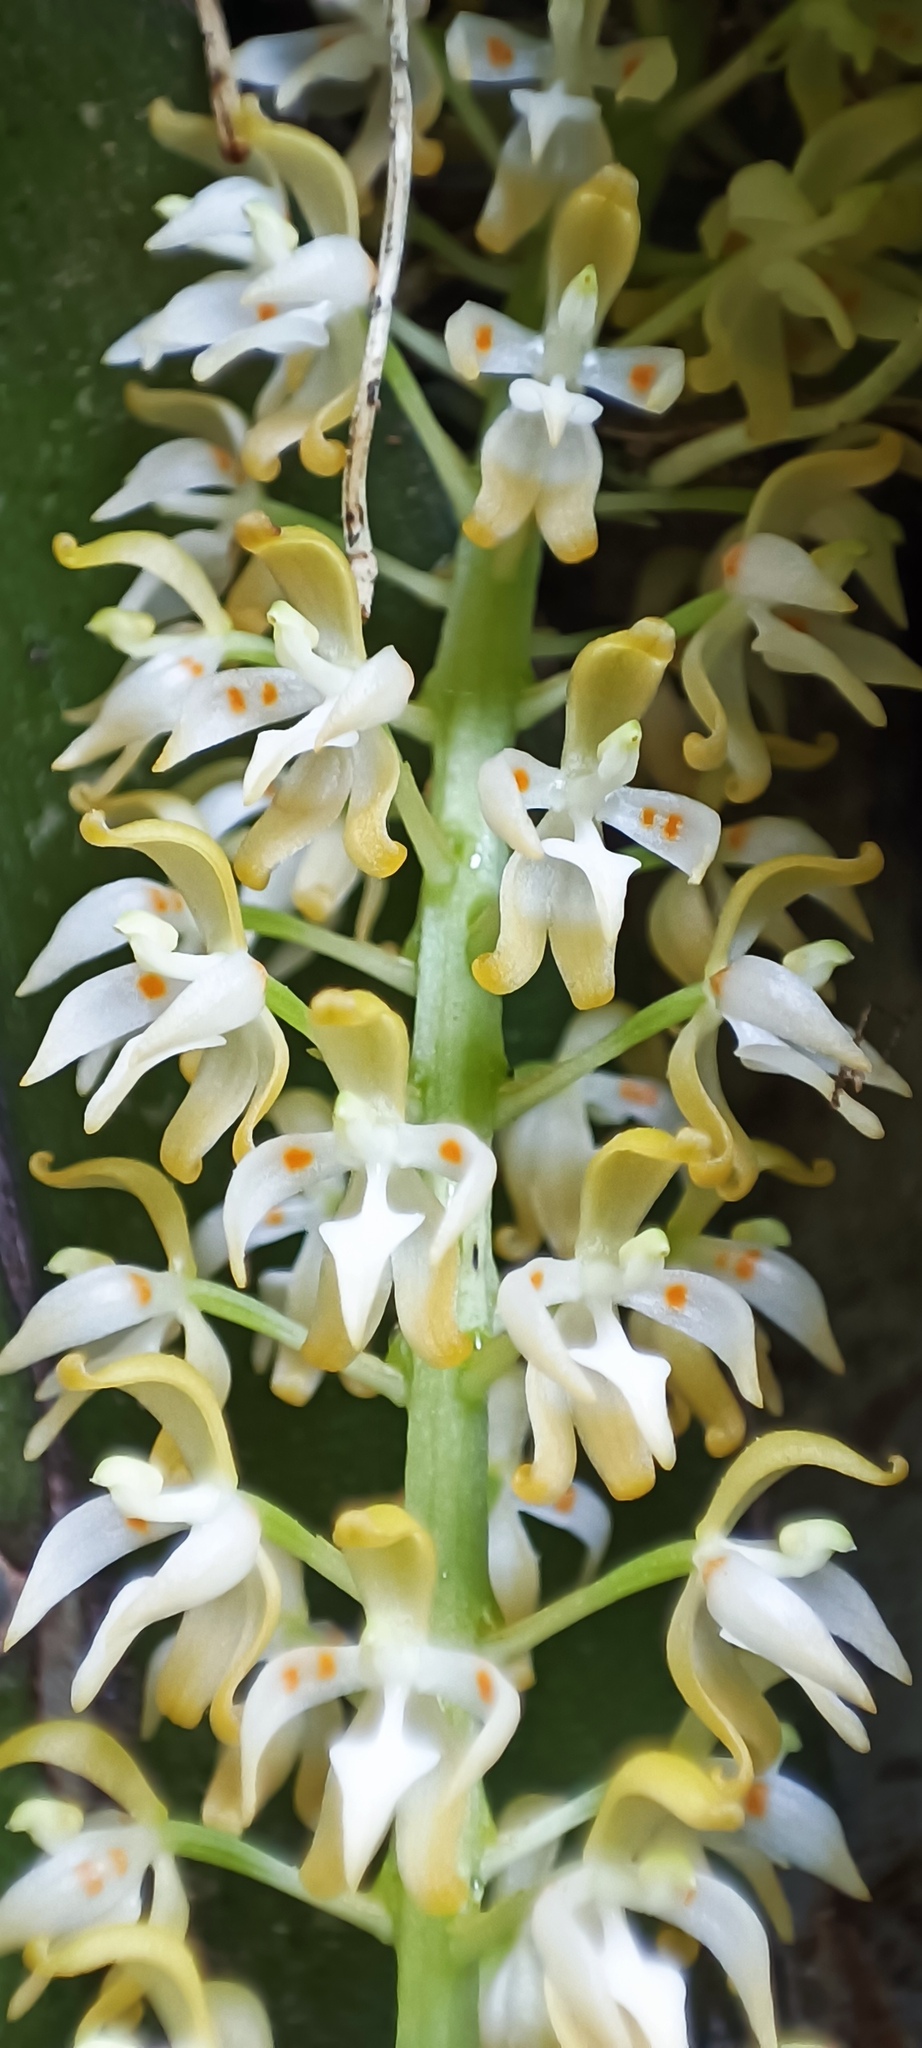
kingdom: Plantae
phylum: Tracheophyta
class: Liliopsida
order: Asparagales
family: Orchidaceae
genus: Notylia
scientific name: Notylia barkeri
